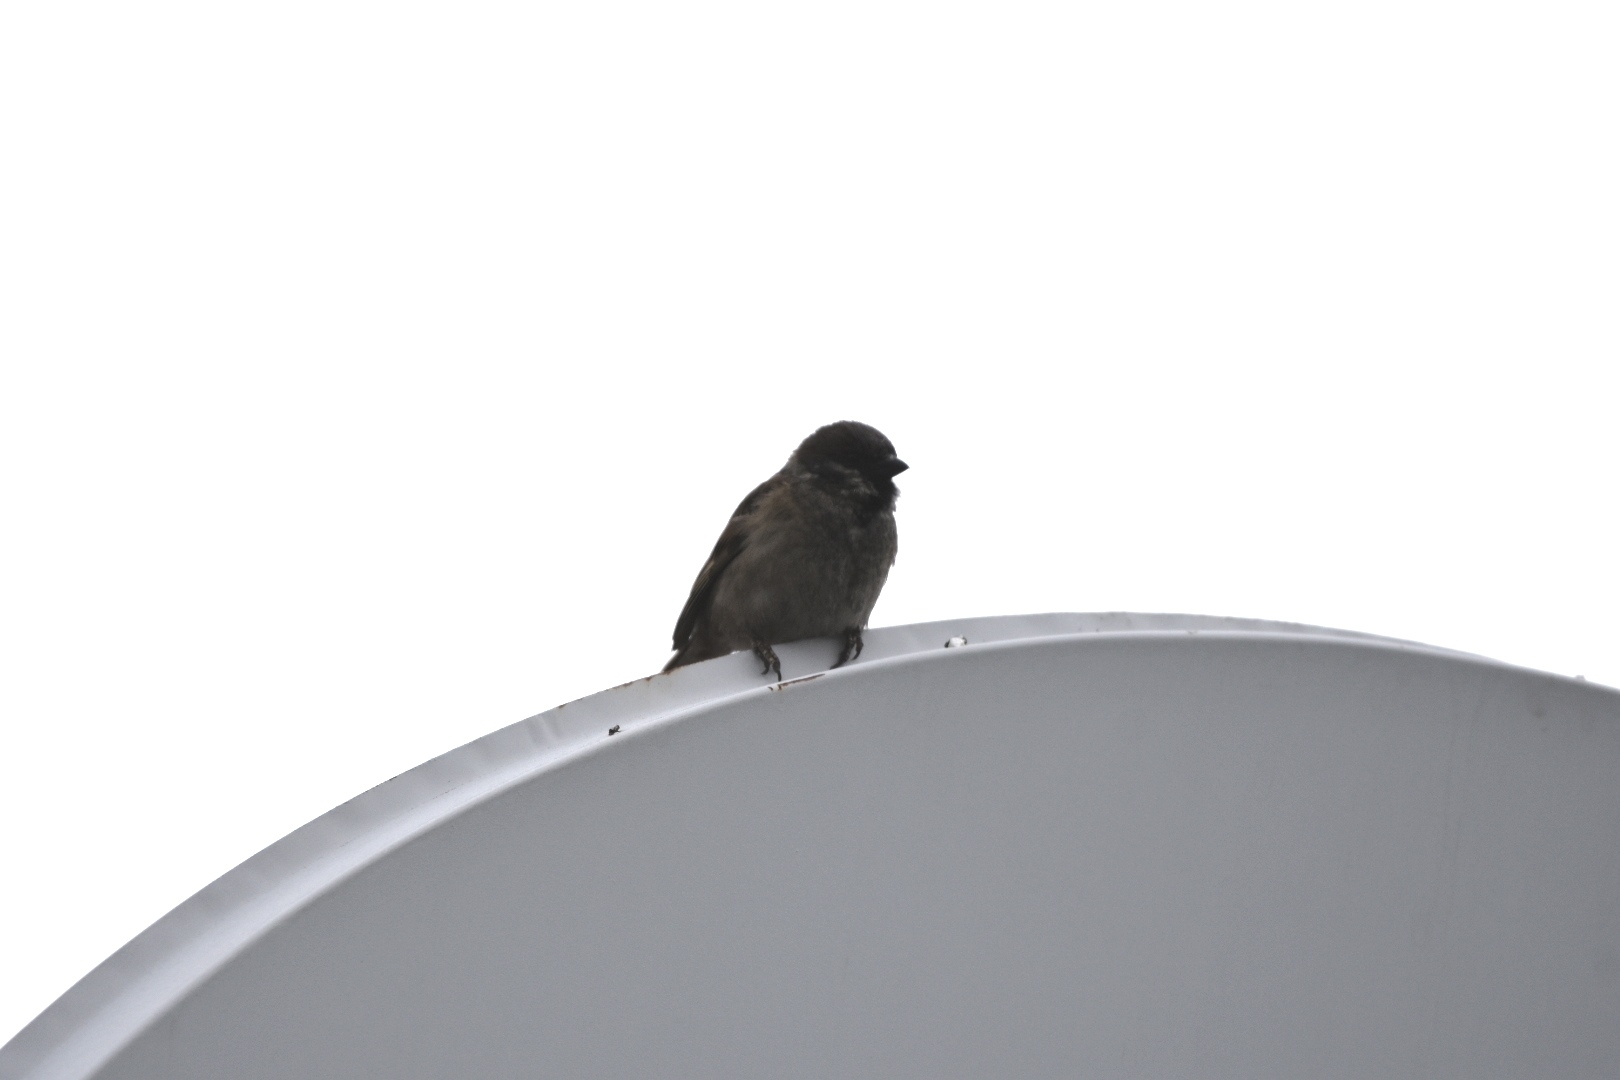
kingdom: Animalia
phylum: Chordata
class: Aves
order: Passeriformes
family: Passeridae
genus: Passer
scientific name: Passer montanus
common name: Eurasian tree sparrow
